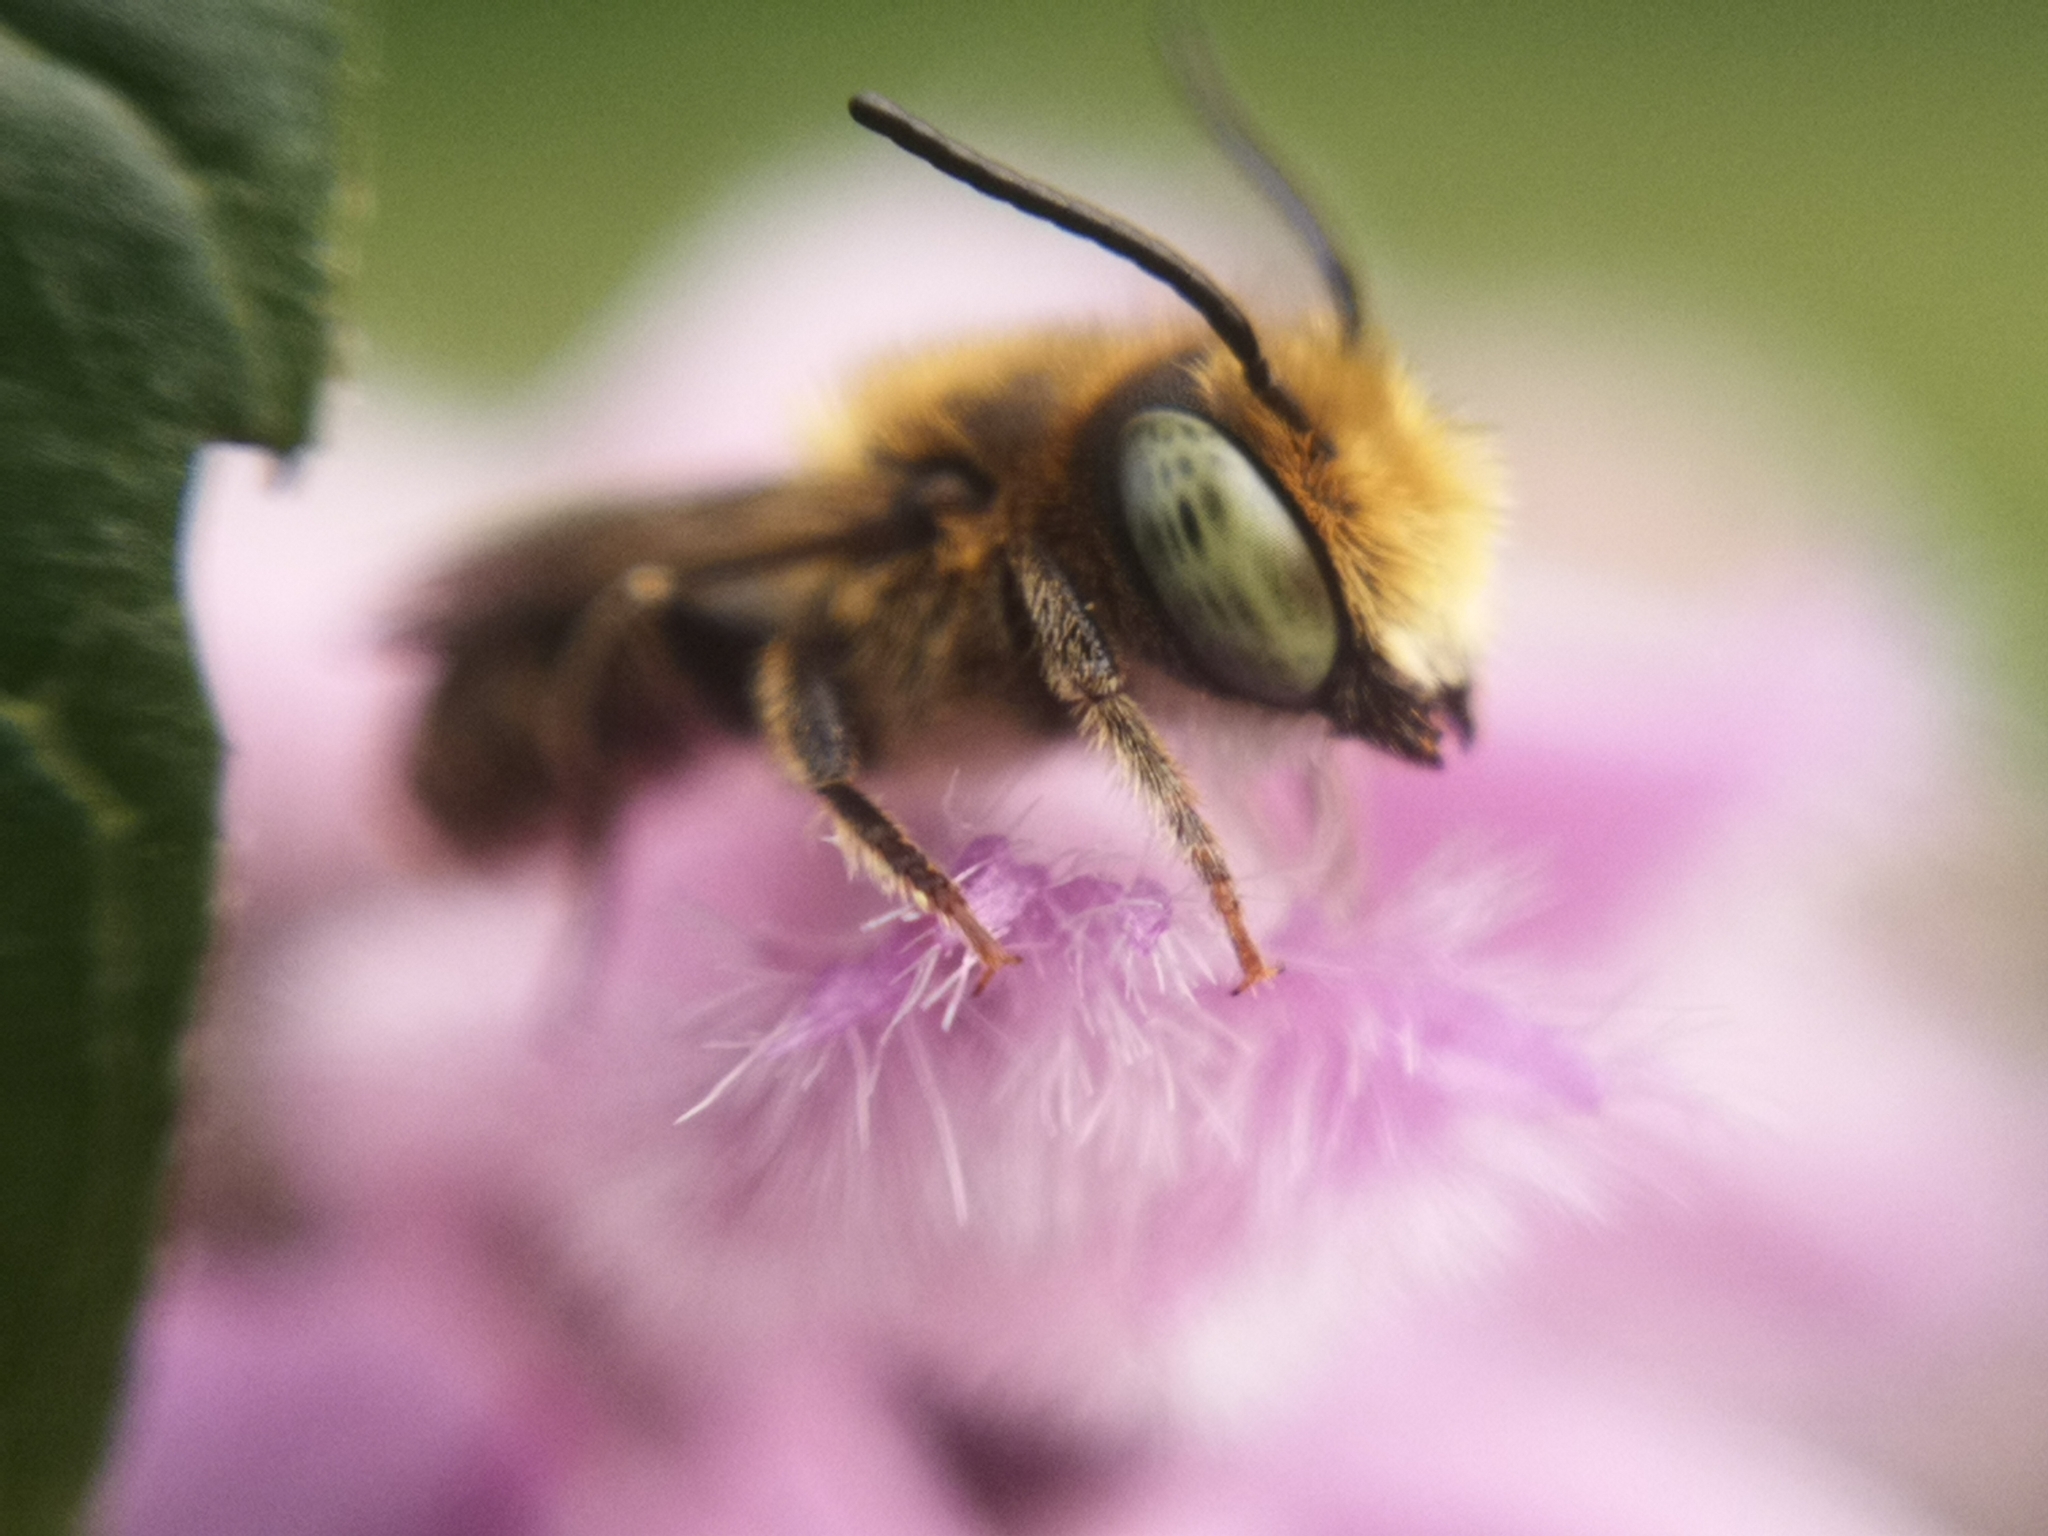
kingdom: Animalia
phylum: Arthropoda
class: Insecta
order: Hymenoptera
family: Megachilidae
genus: Megachile
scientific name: Megachile rotundata
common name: Alfalfa leafcutting bee
